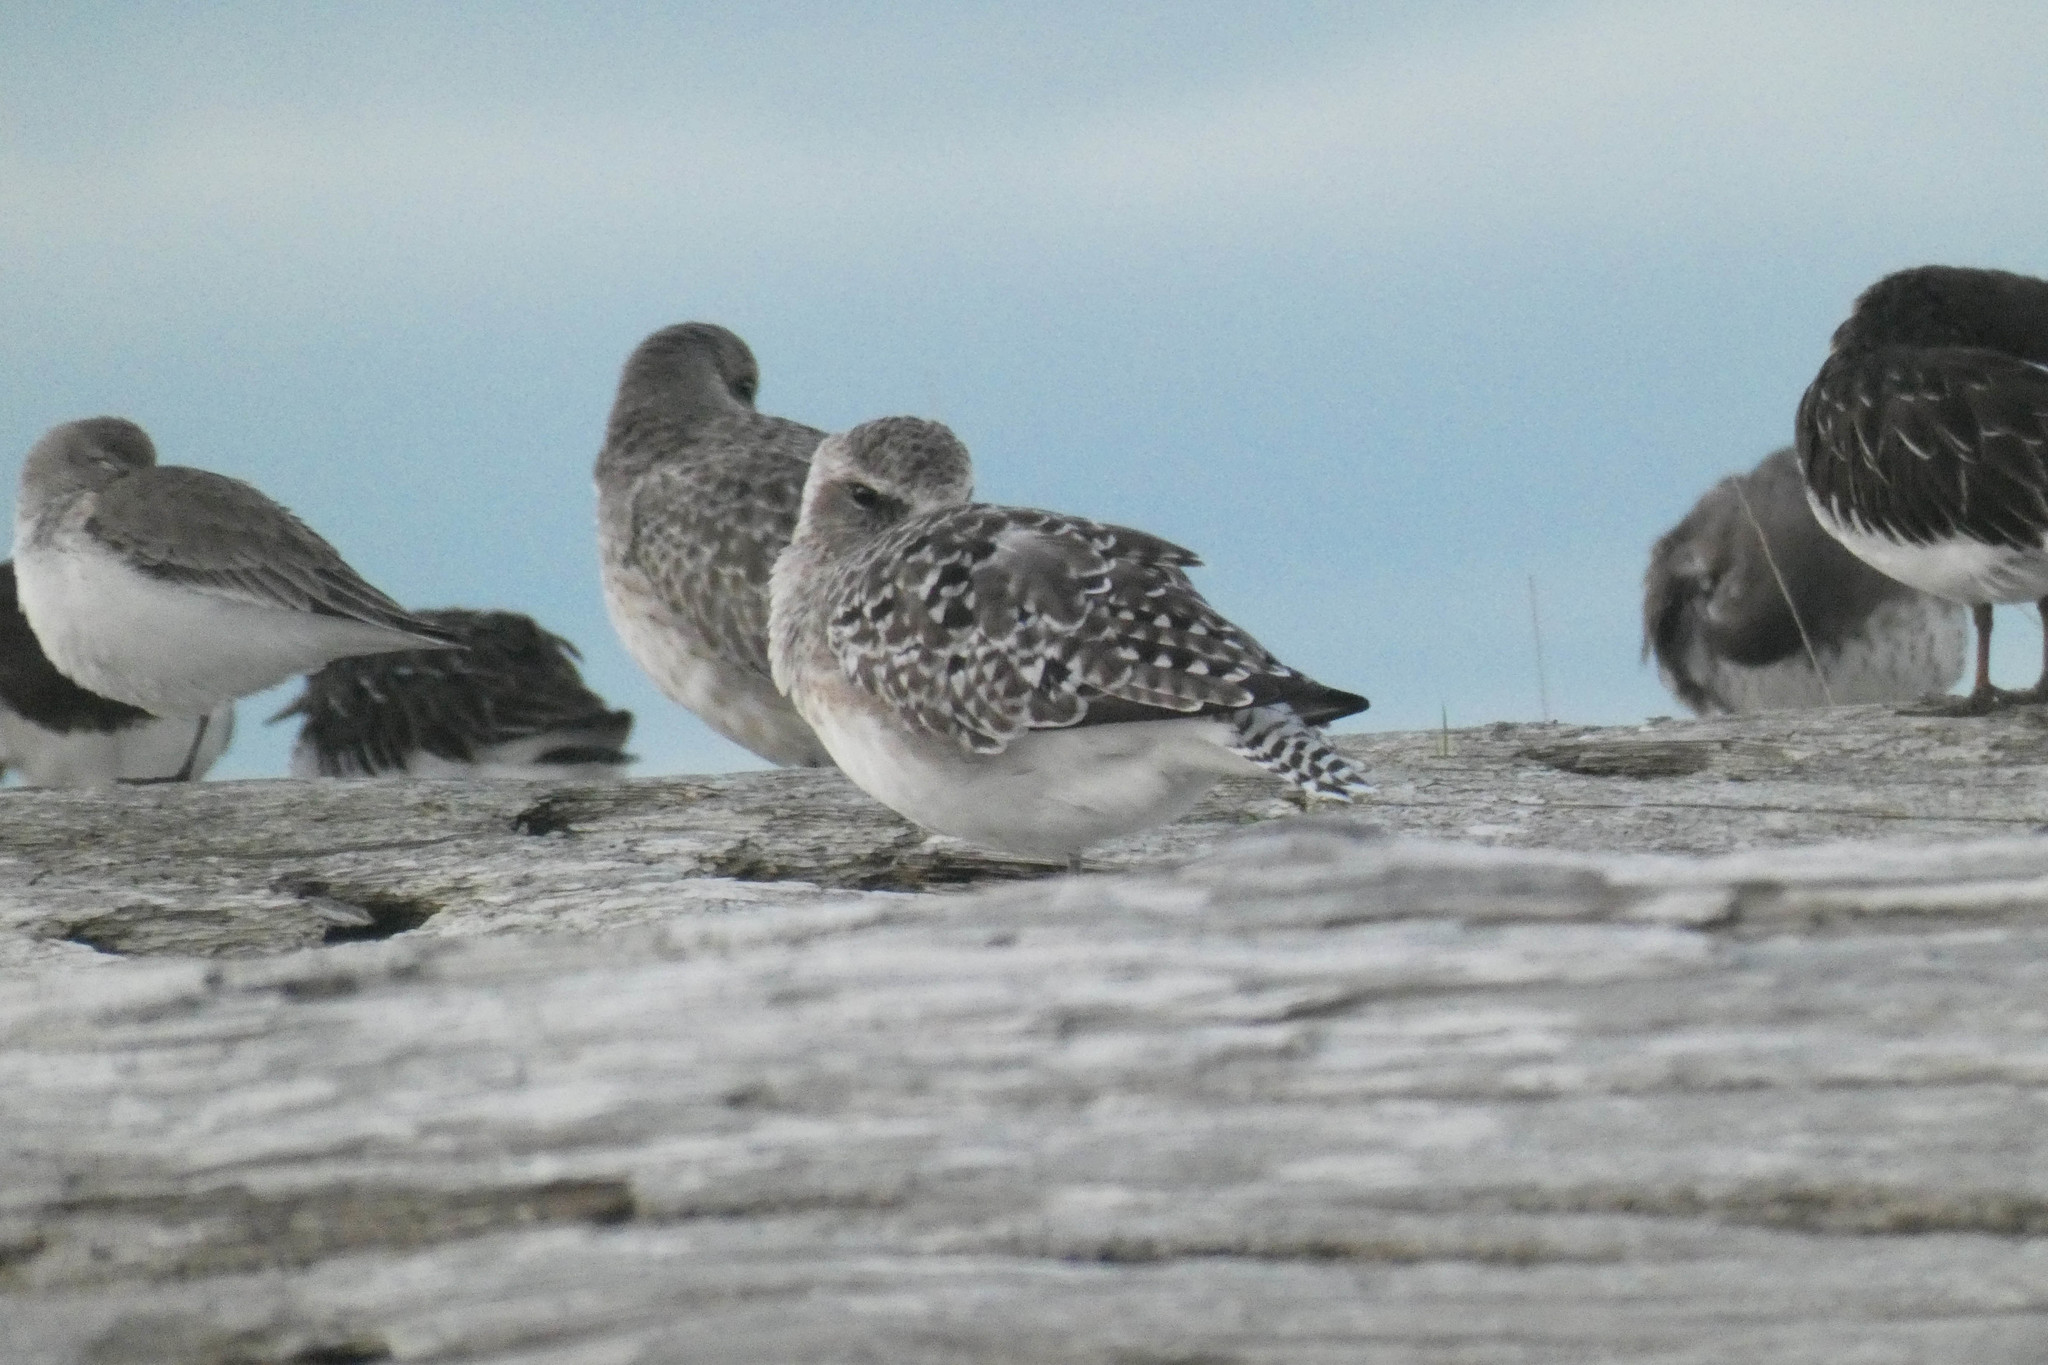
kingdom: Animalia
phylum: Chordata
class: Aves
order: Charadriiformes
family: Charadriidae
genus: Pluvialis
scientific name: Pluvialis squatarola
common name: Grey plover
